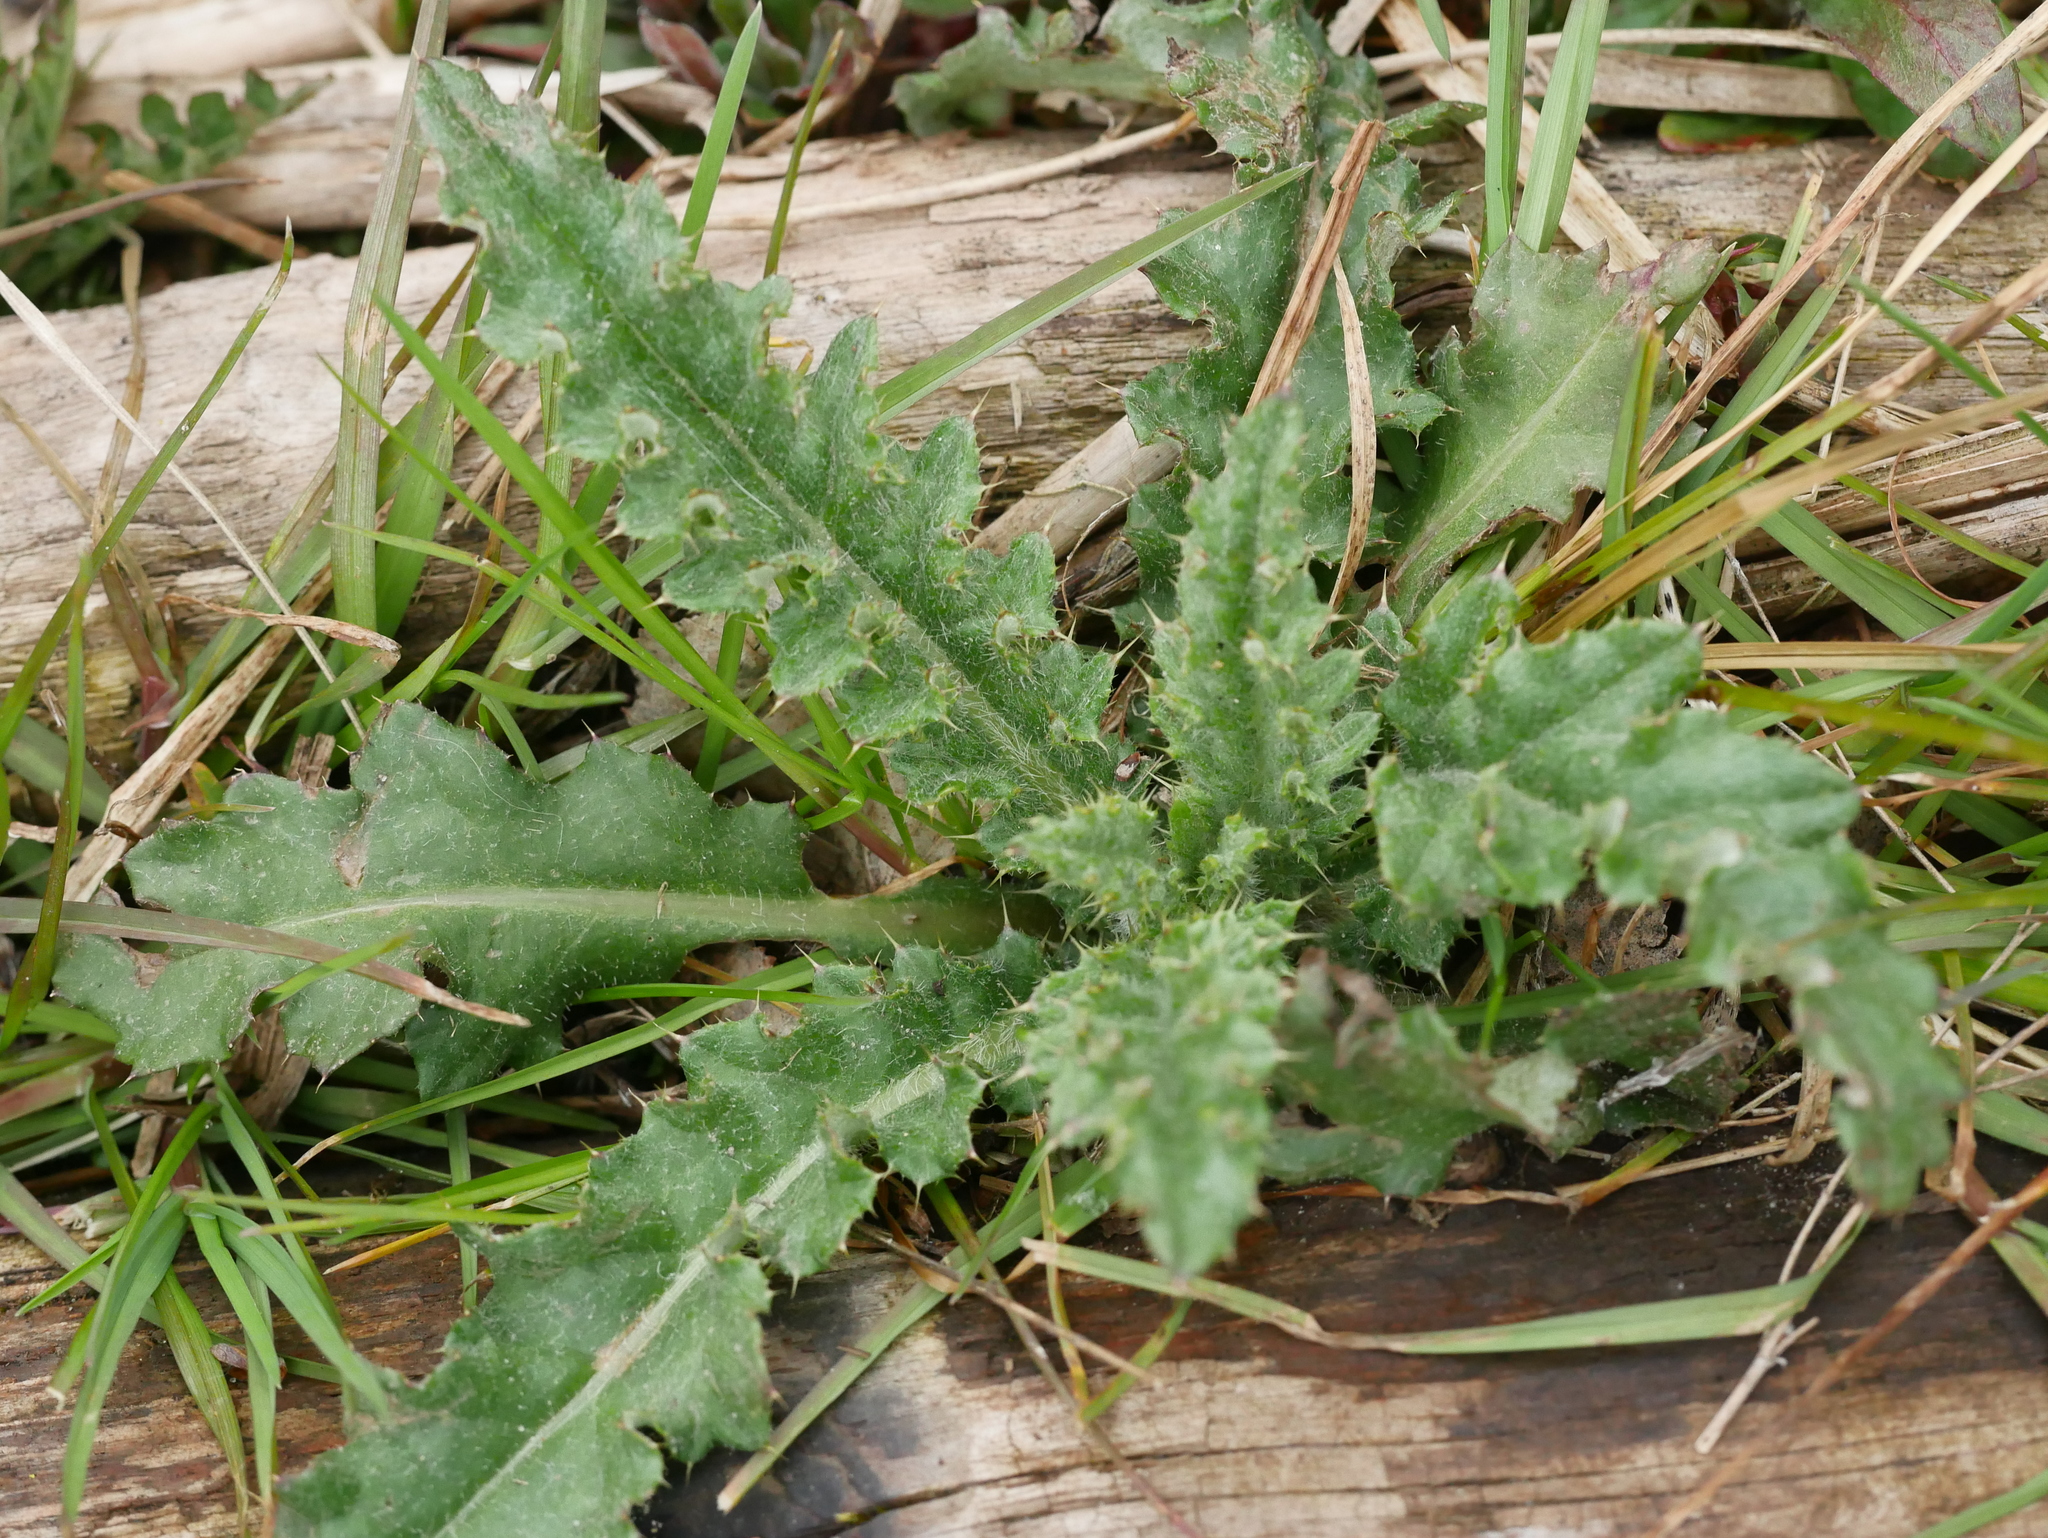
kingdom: Plantae
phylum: Tracheophyta
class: Magnoliopsida
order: Asterales
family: Asteraceae
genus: Cirsium
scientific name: Cirsium arvense
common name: Creeping thistle
